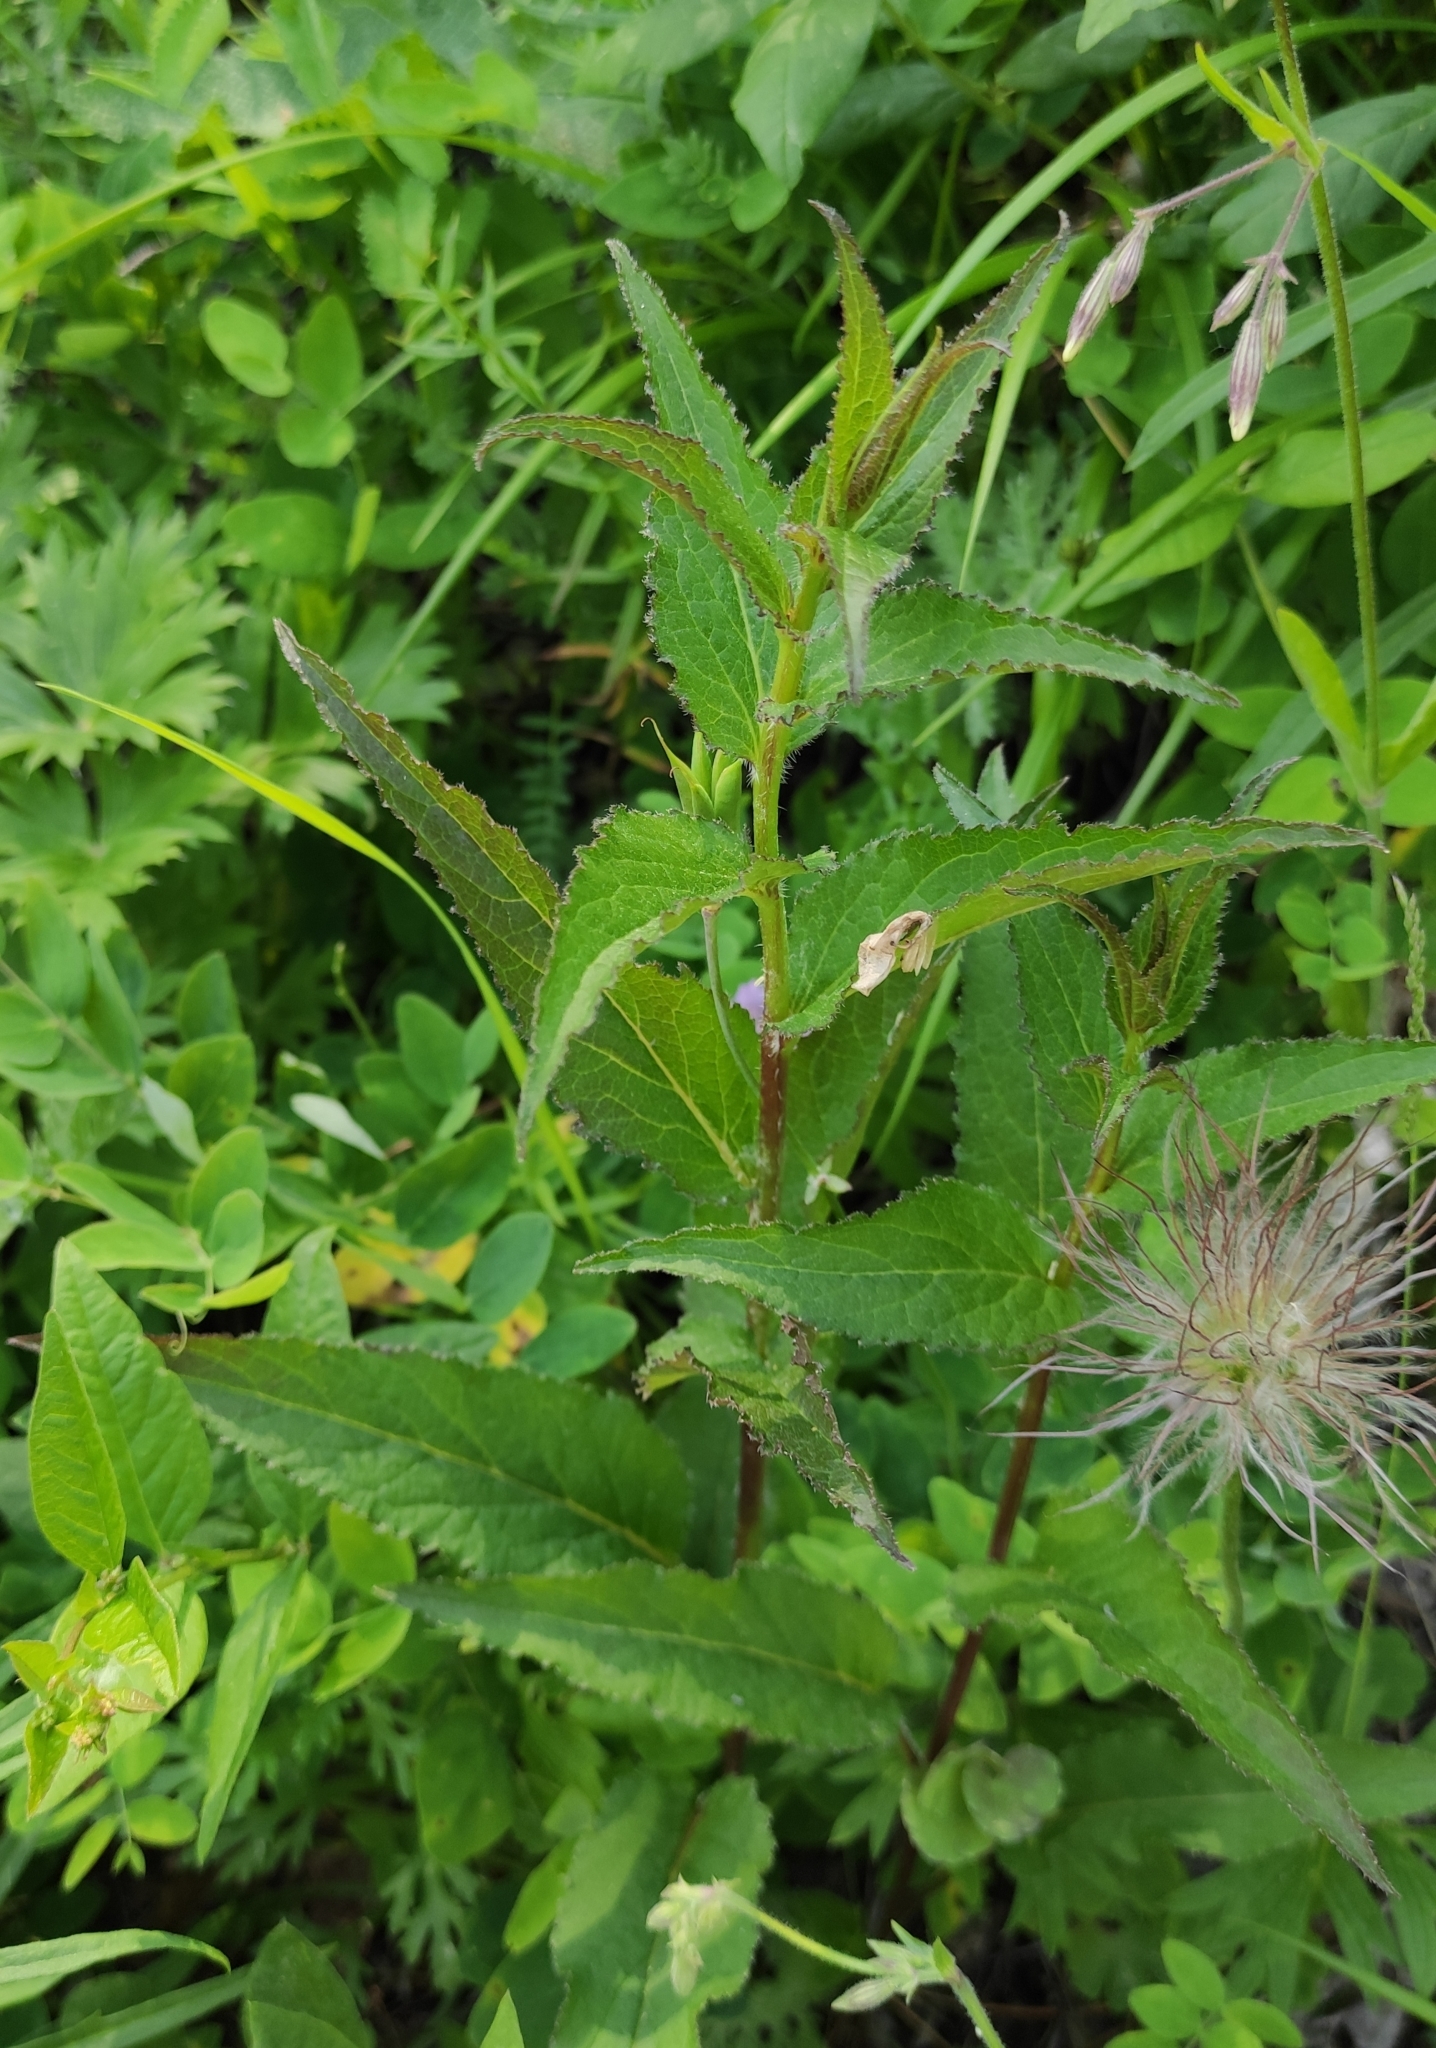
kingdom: Plantae
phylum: Tracheophyta
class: Magnoliopsida
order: Asterales
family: Campanulaceae
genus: Campanula
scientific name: Campanula glomerata
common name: Clustered bellflower
